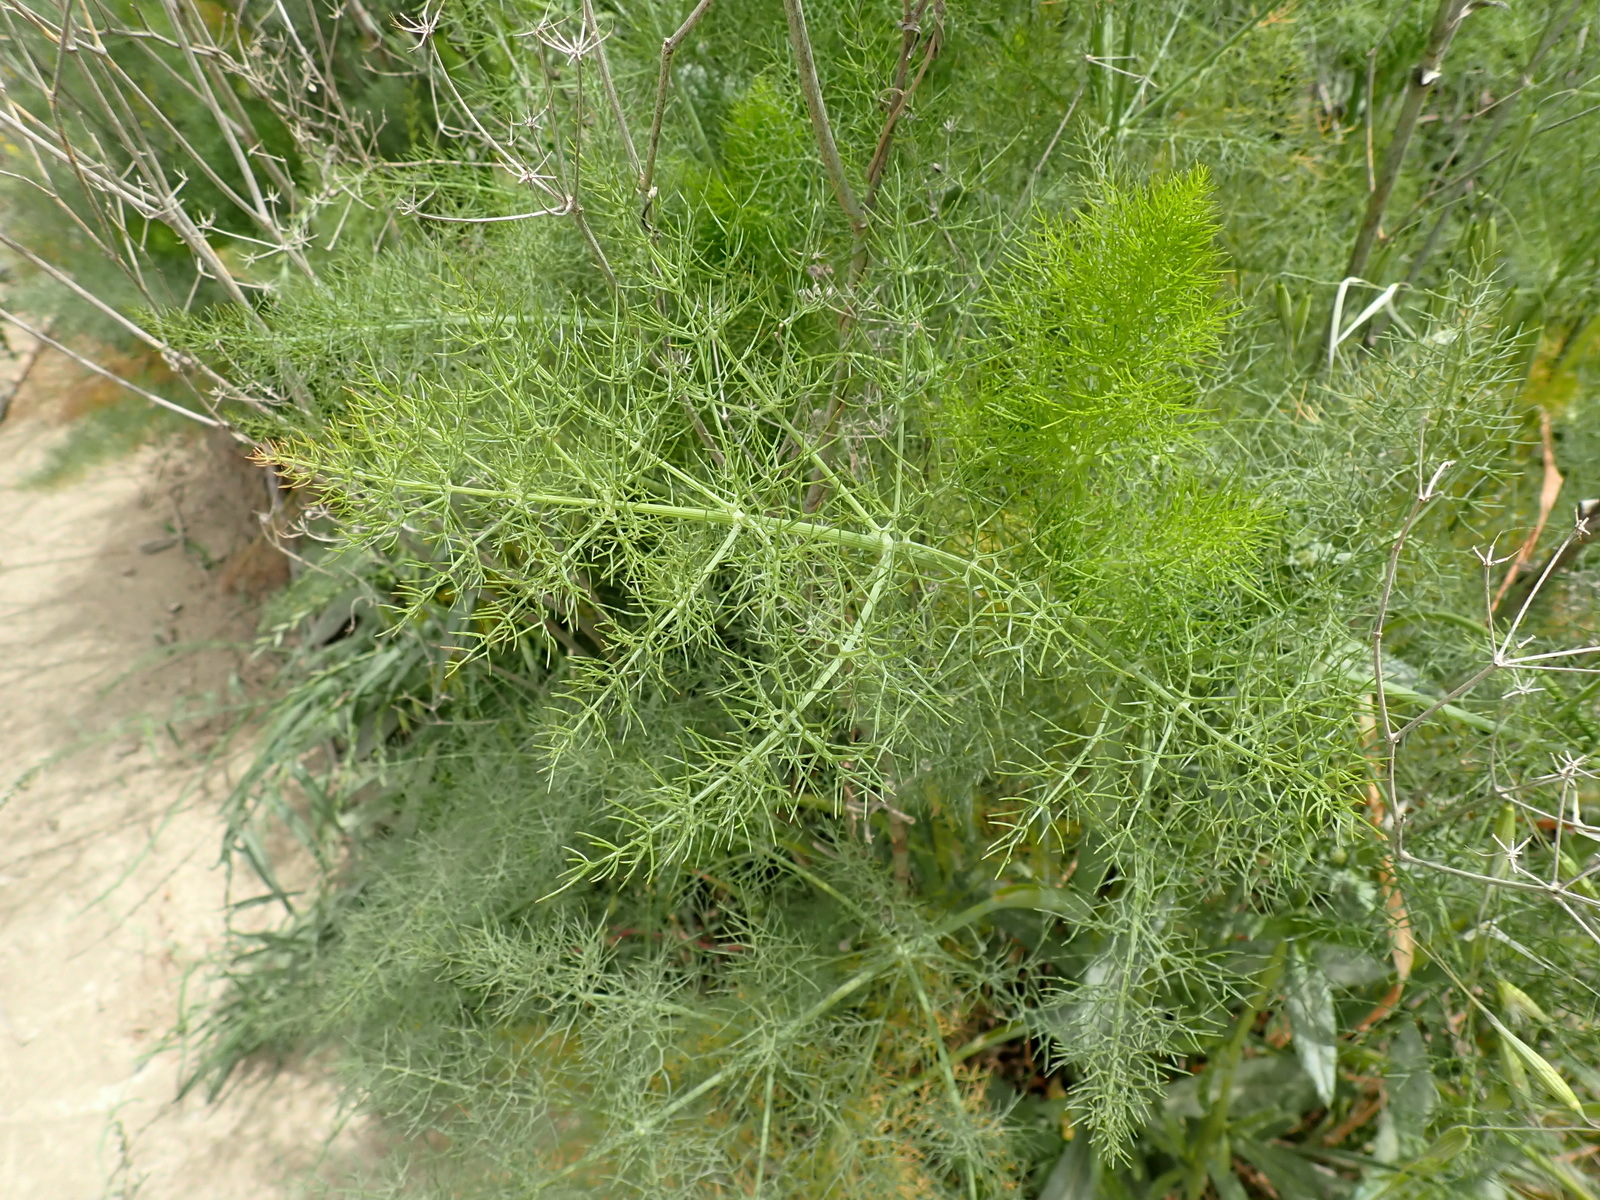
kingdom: Plantae
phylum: Tracheophyta
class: Magnoliopsida
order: Apiales
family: Apiaceae
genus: Foeniculum
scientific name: Foeniculum vulgare
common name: Fennel
